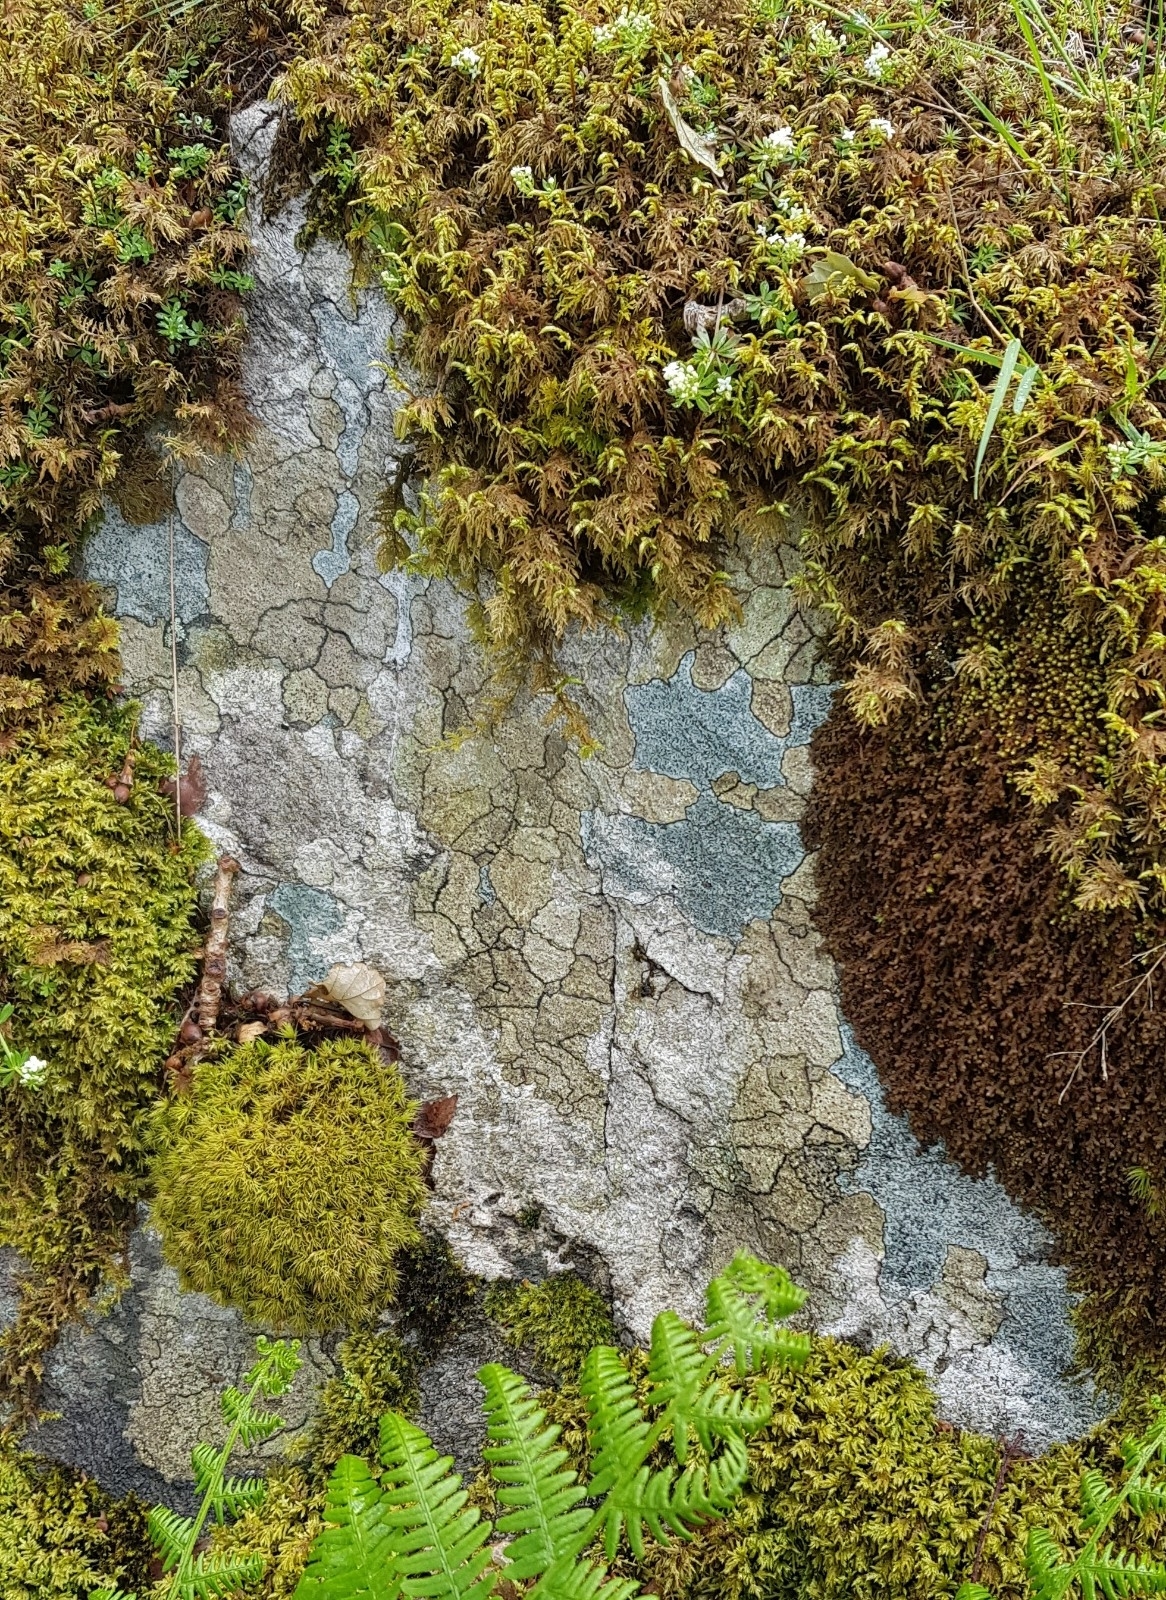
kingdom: Plantae
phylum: Marchantiophyta
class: Jungermanniopsida
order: Porellales
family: Frullaniaceae
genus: Frullania
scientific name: Frullania tamarisci
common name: Tamarisk scalewort
